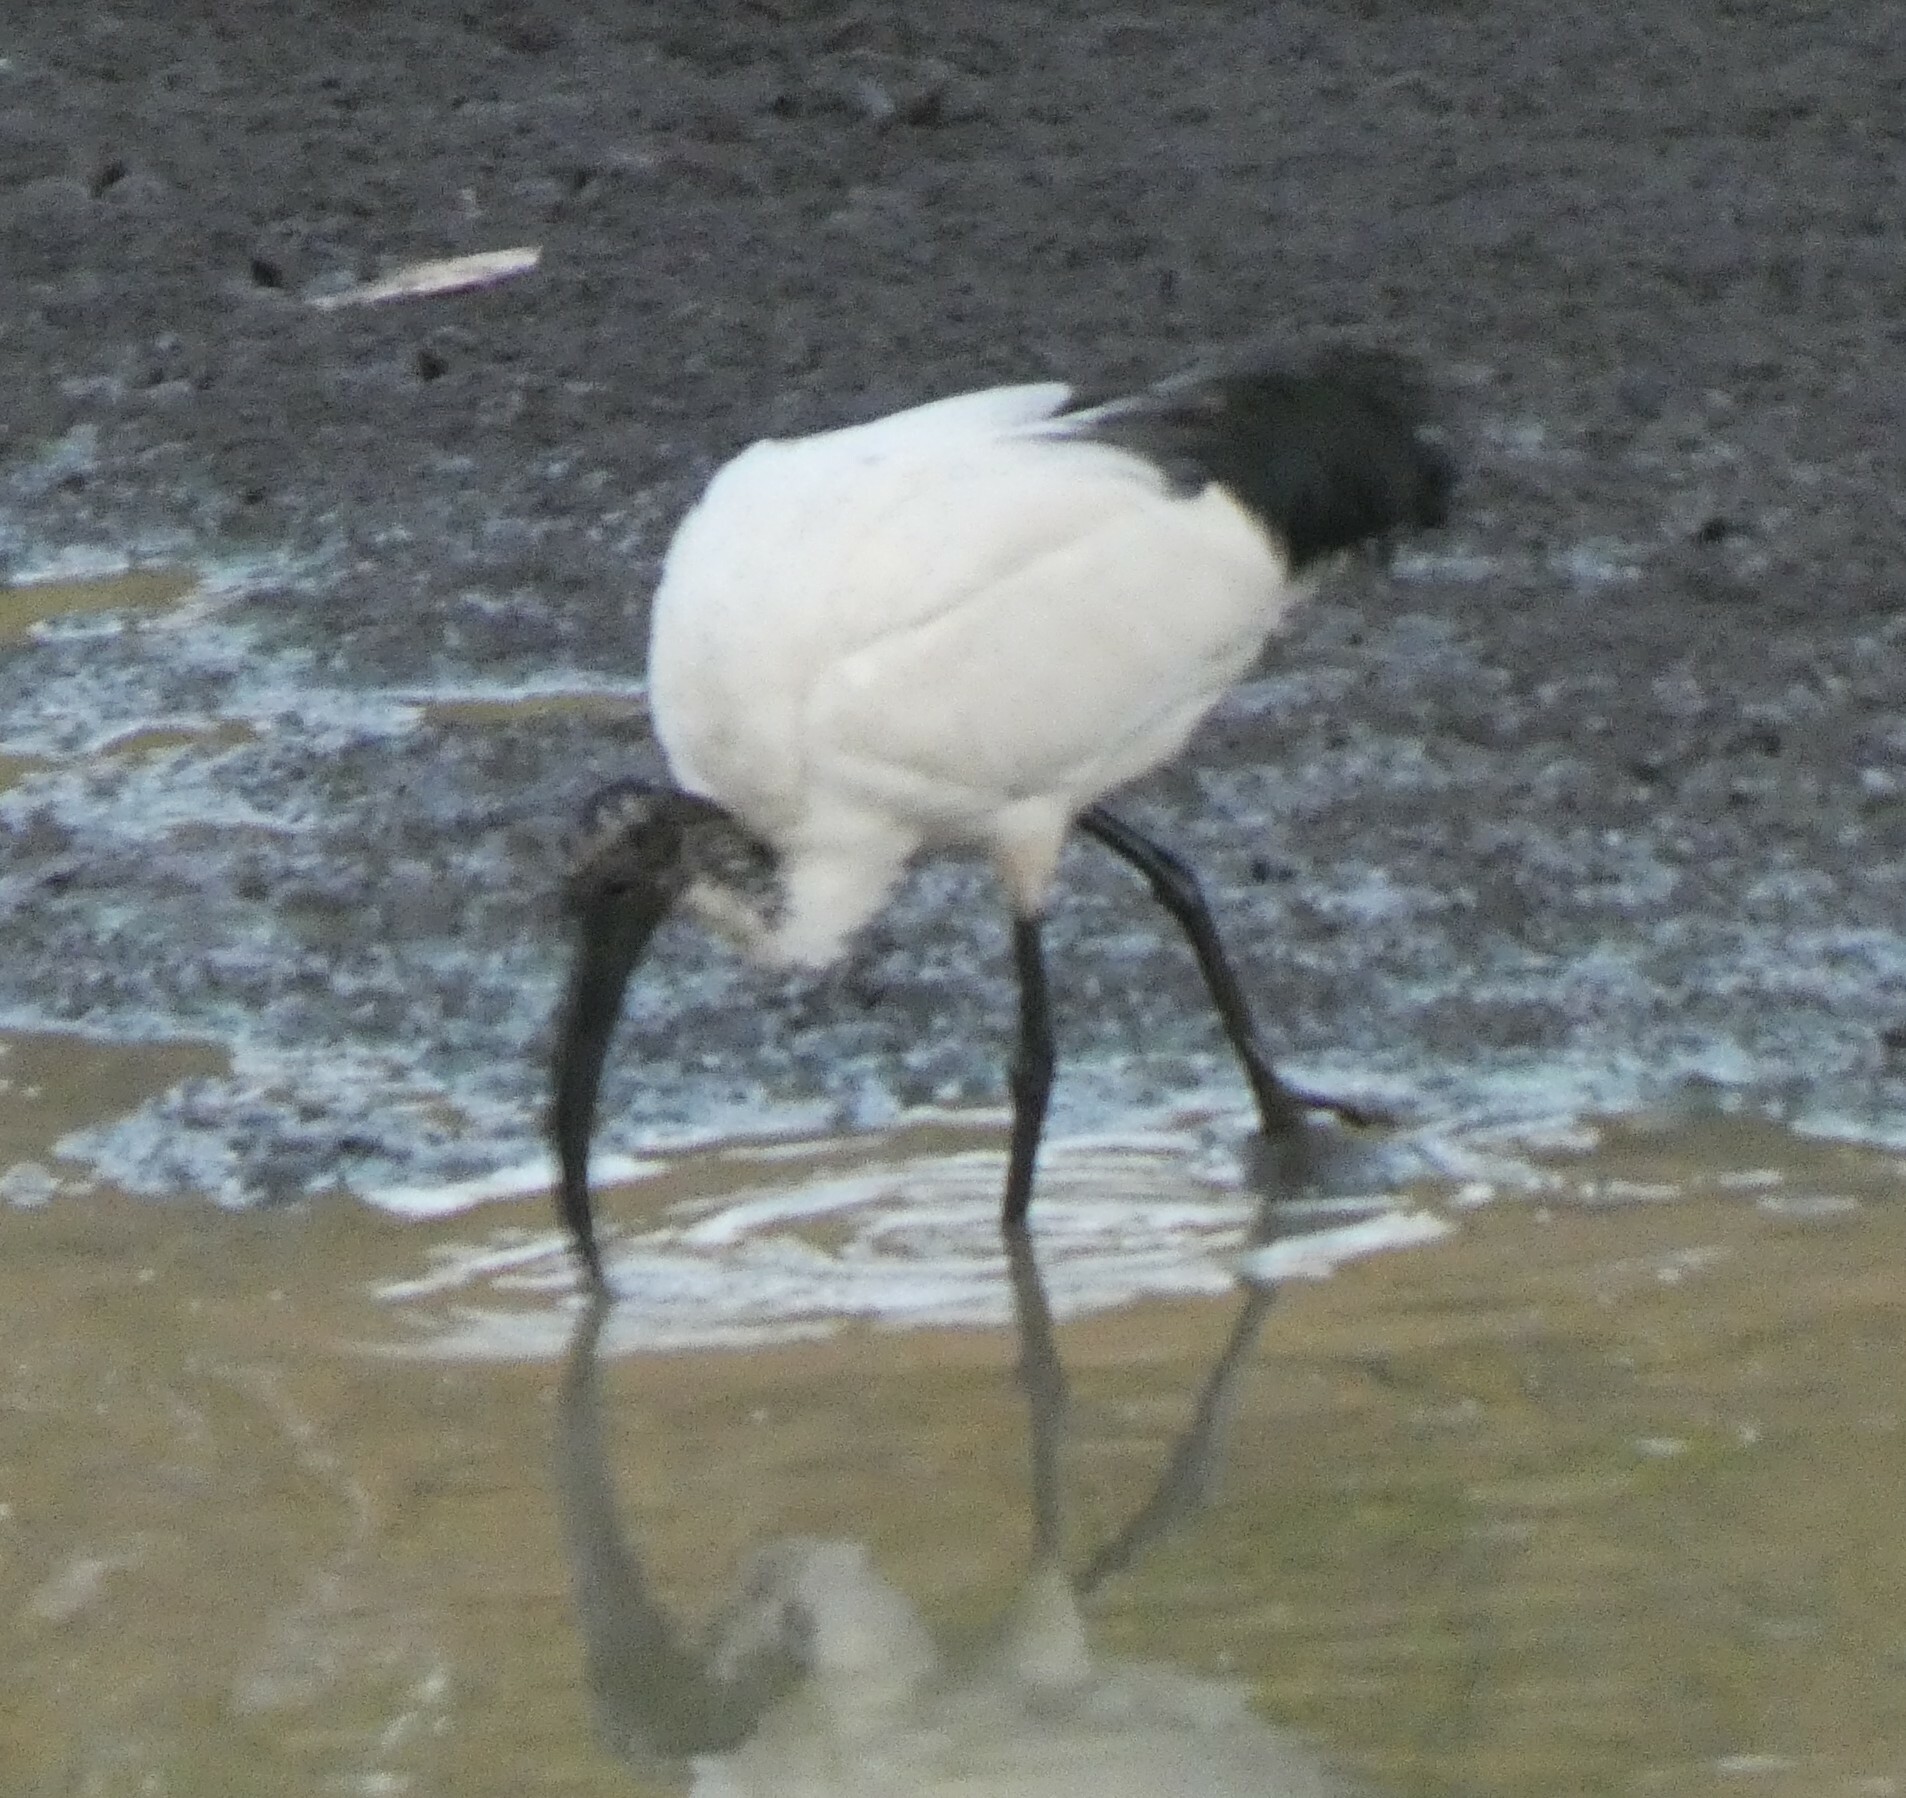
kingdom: Animalia
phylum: Chordata
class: Aves
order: Pelecaniformes
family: Threskiornithidae
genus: Threskiornis
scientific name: Threskiornis aethiopicus
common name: Sacred ibis
